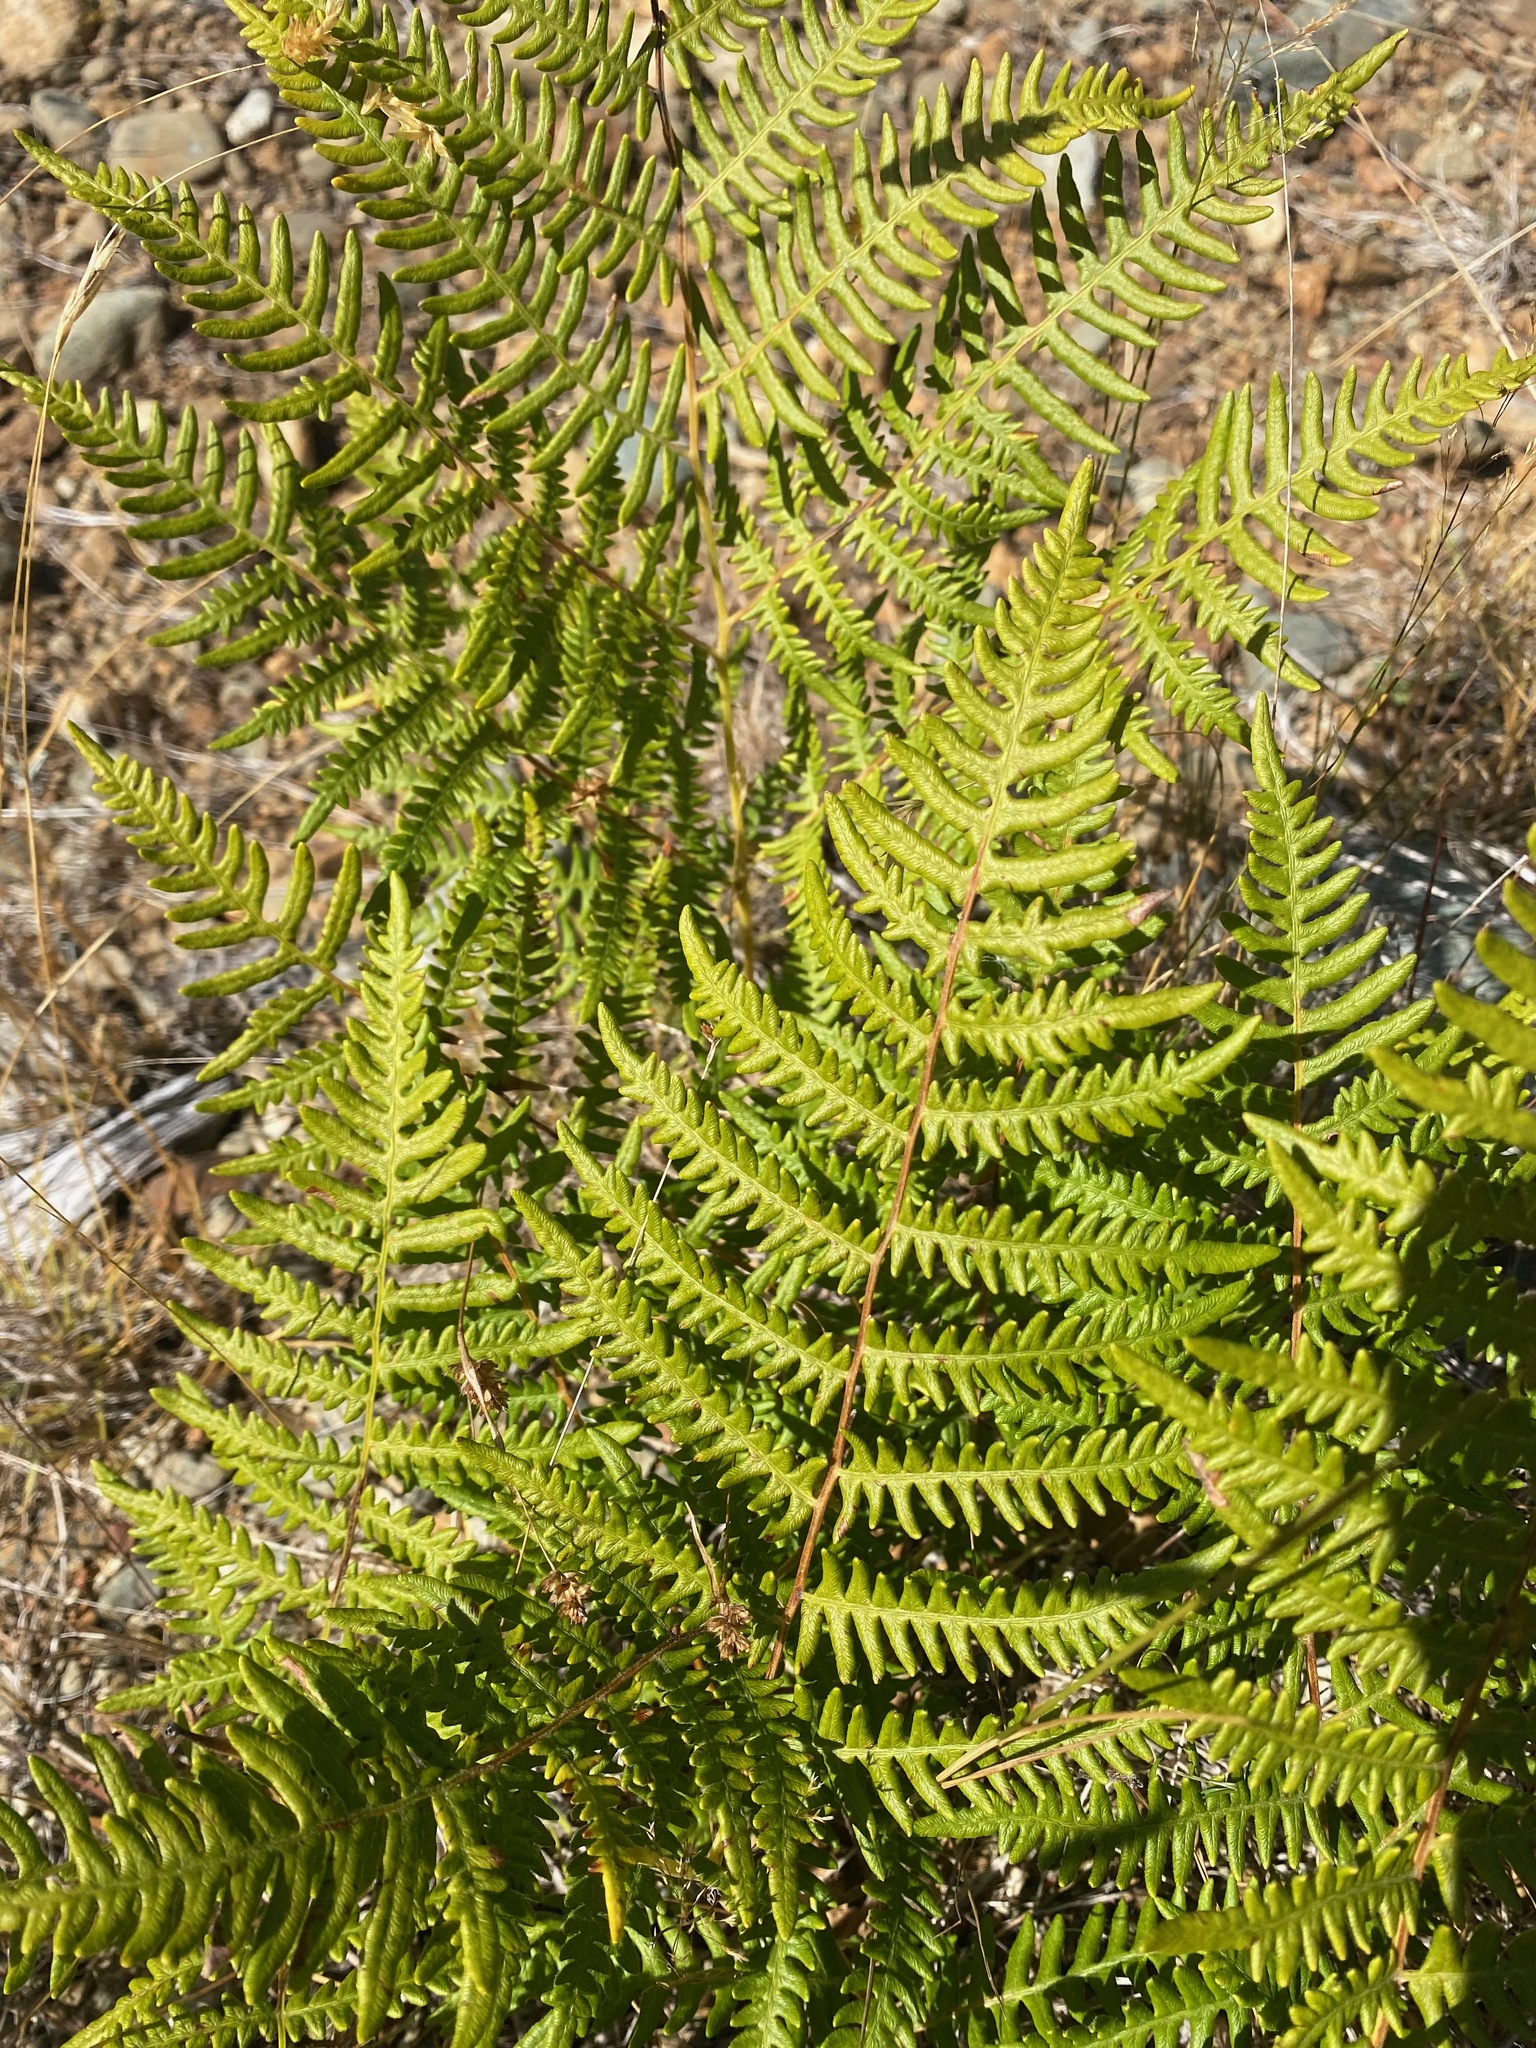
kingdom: Plantae
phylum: Tracheophyta
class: Polypodiopsida
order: Polypodiales
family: Dennstaedtiaceae
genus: Pteridium
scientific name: Pteridium aquilinum
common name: Bracken
